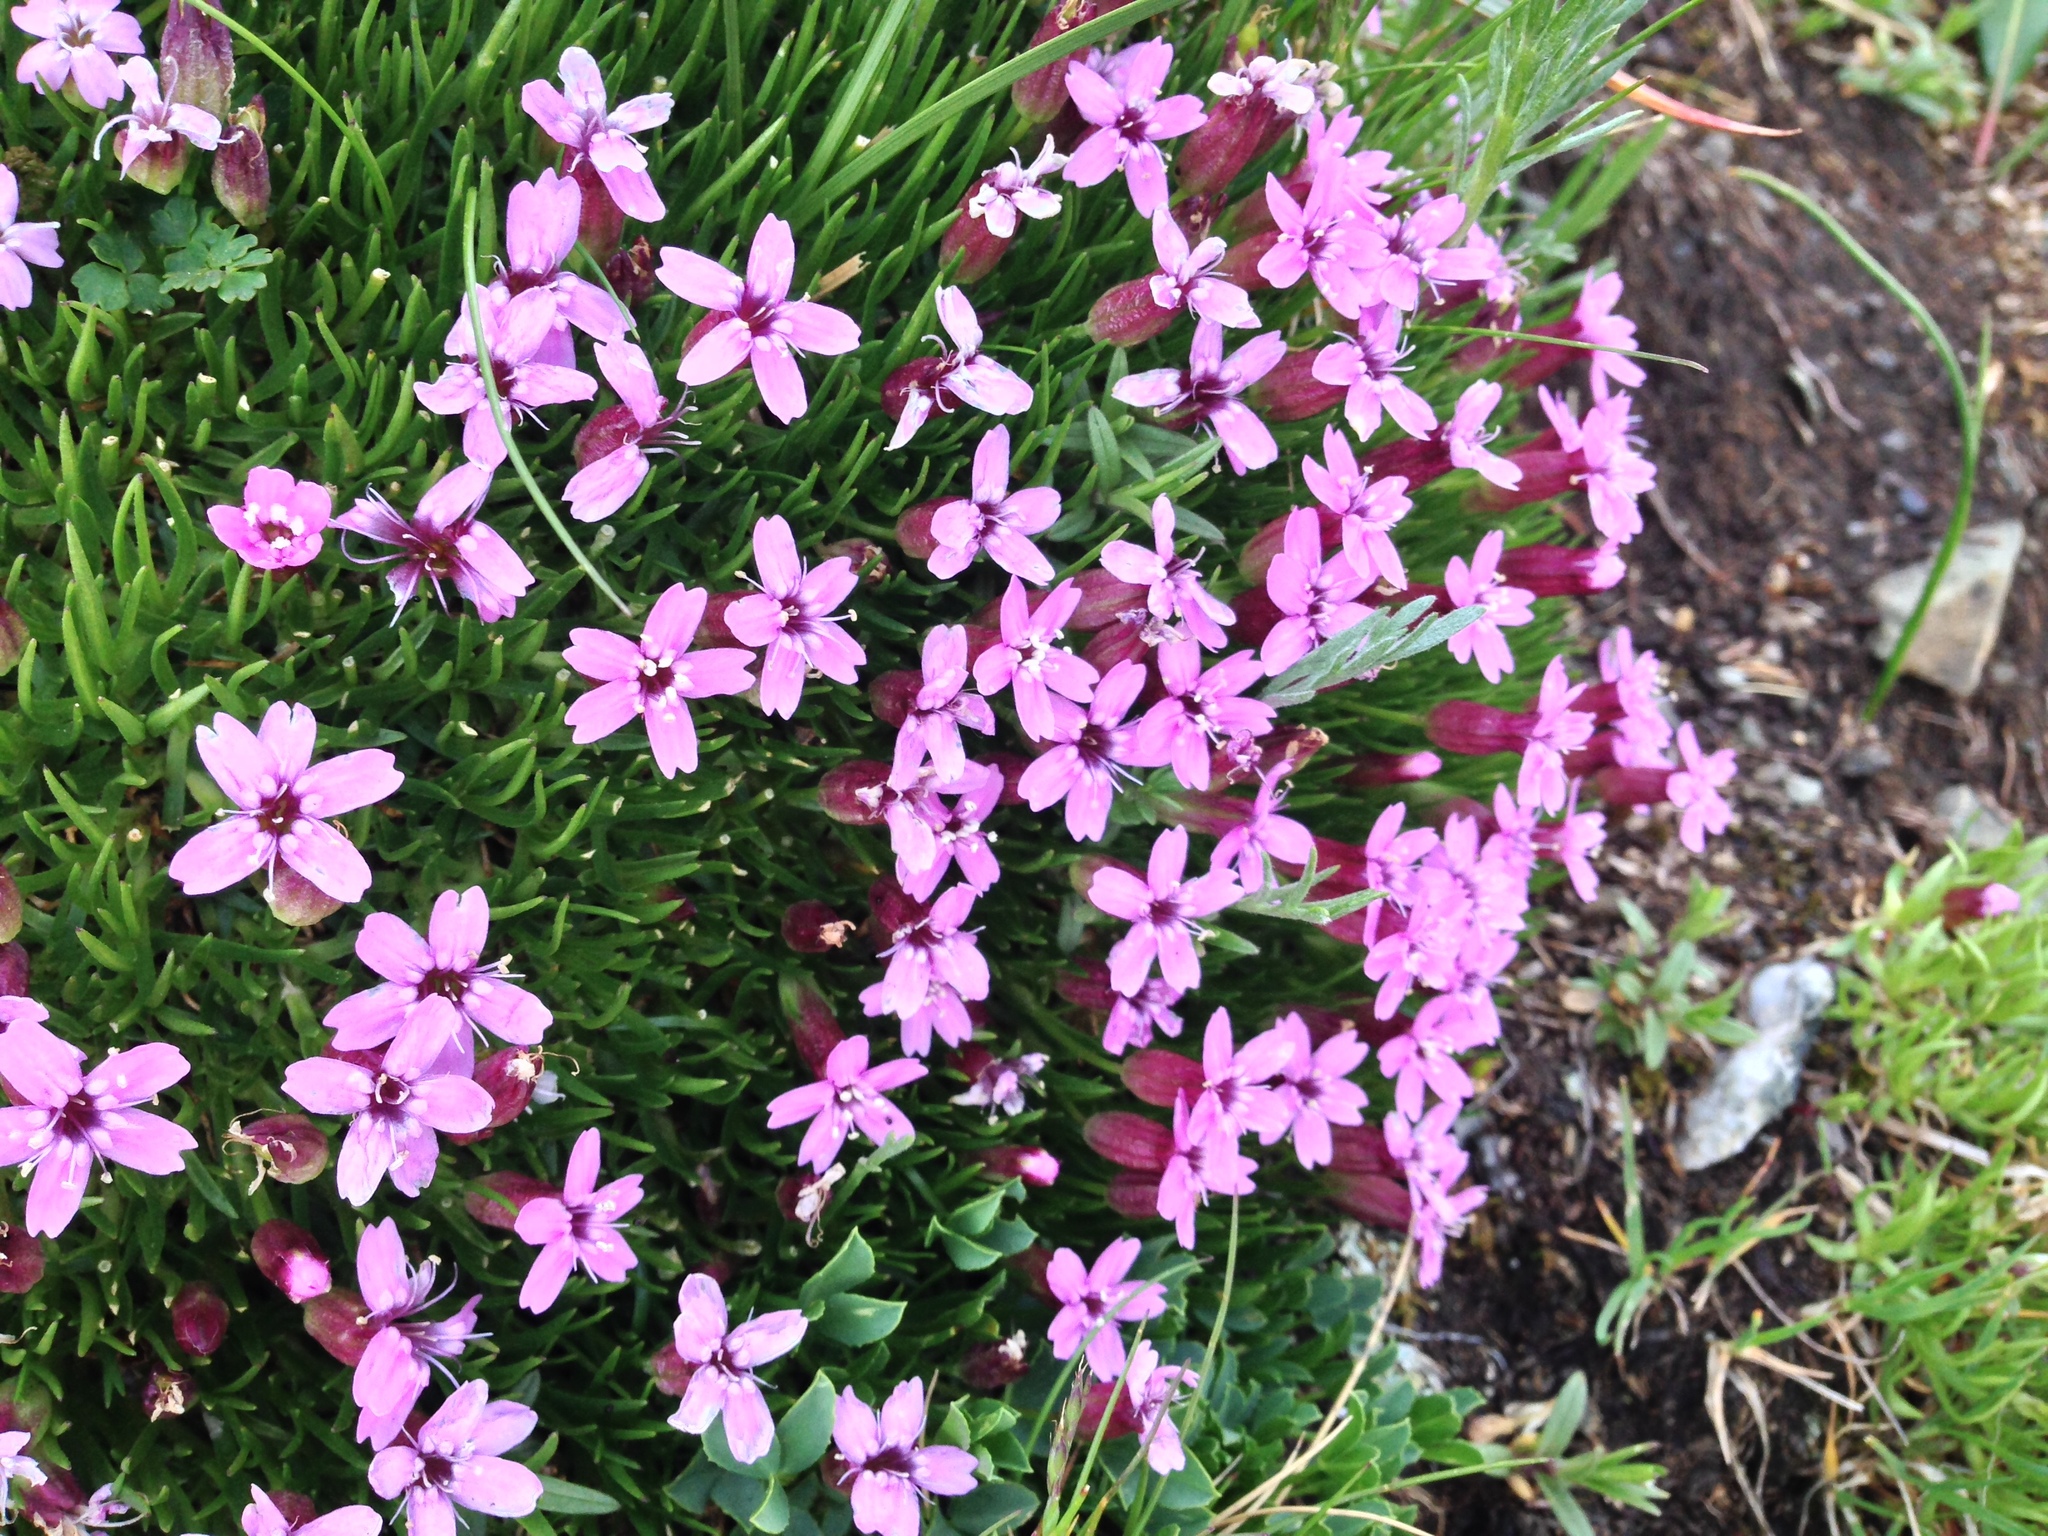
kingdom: Plantae
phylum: Tracheophyta
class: Magnoliopsida
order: Caryophyllales
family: Caryophyllaceae
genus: Silene
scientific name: Silene acaulis
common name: Moss campion
